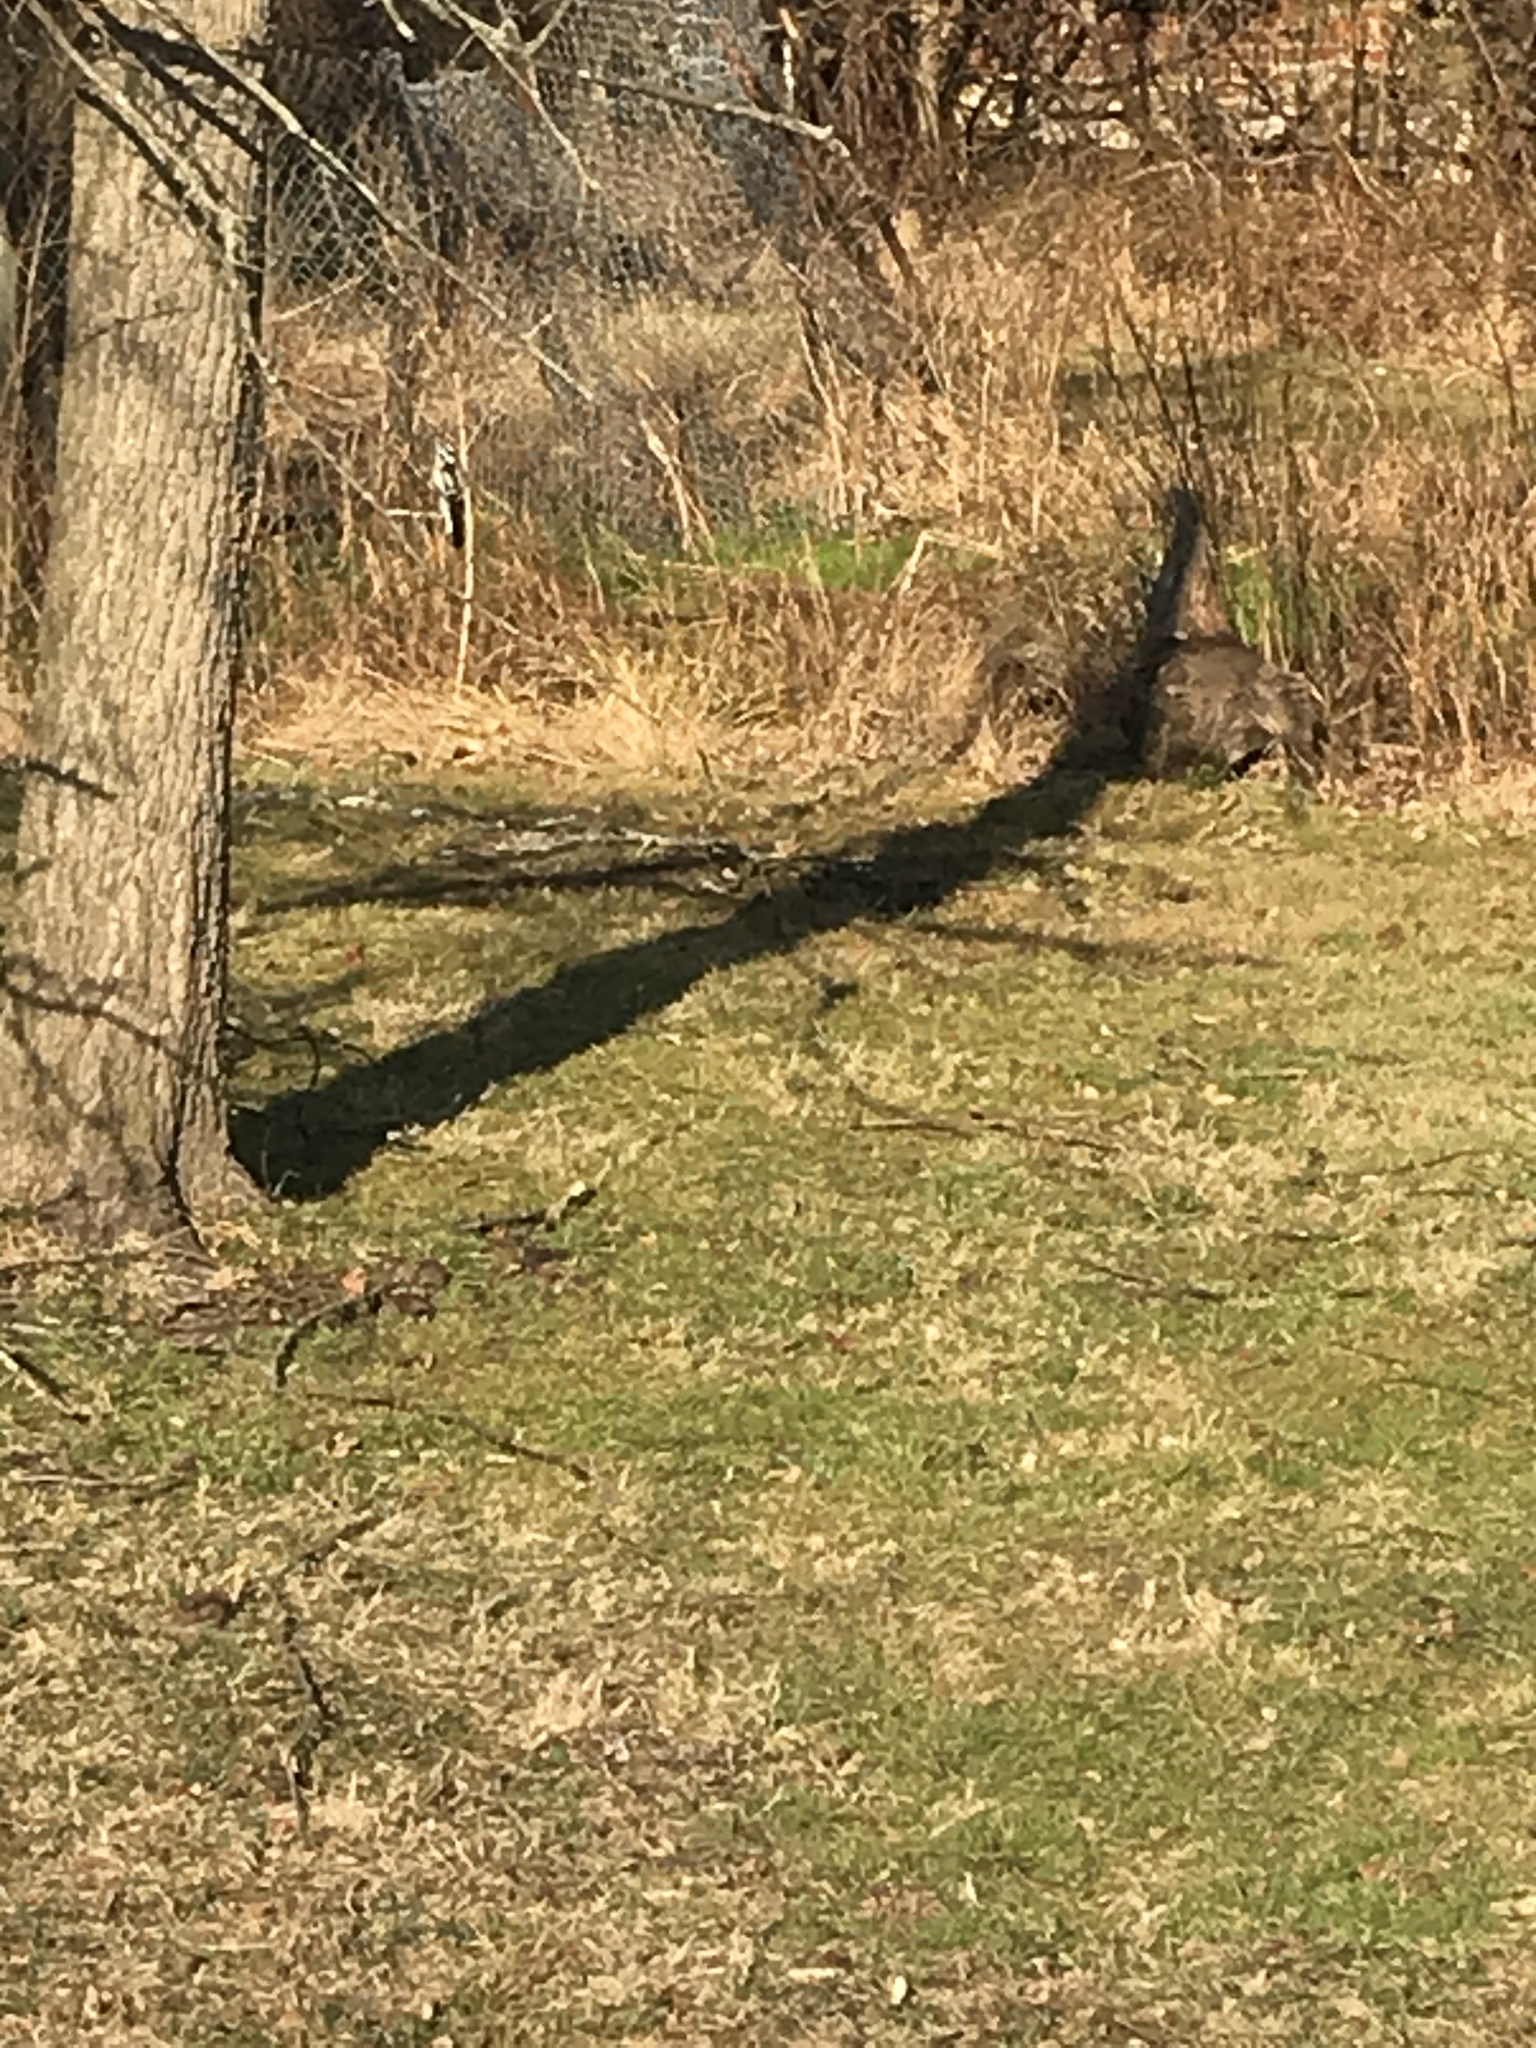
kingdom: Animalia
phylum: Chordata
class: Aves
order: Piciformes
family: Picidae
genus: Dryobates
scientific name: Dryobates pubescens
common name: Downy woodpecker
